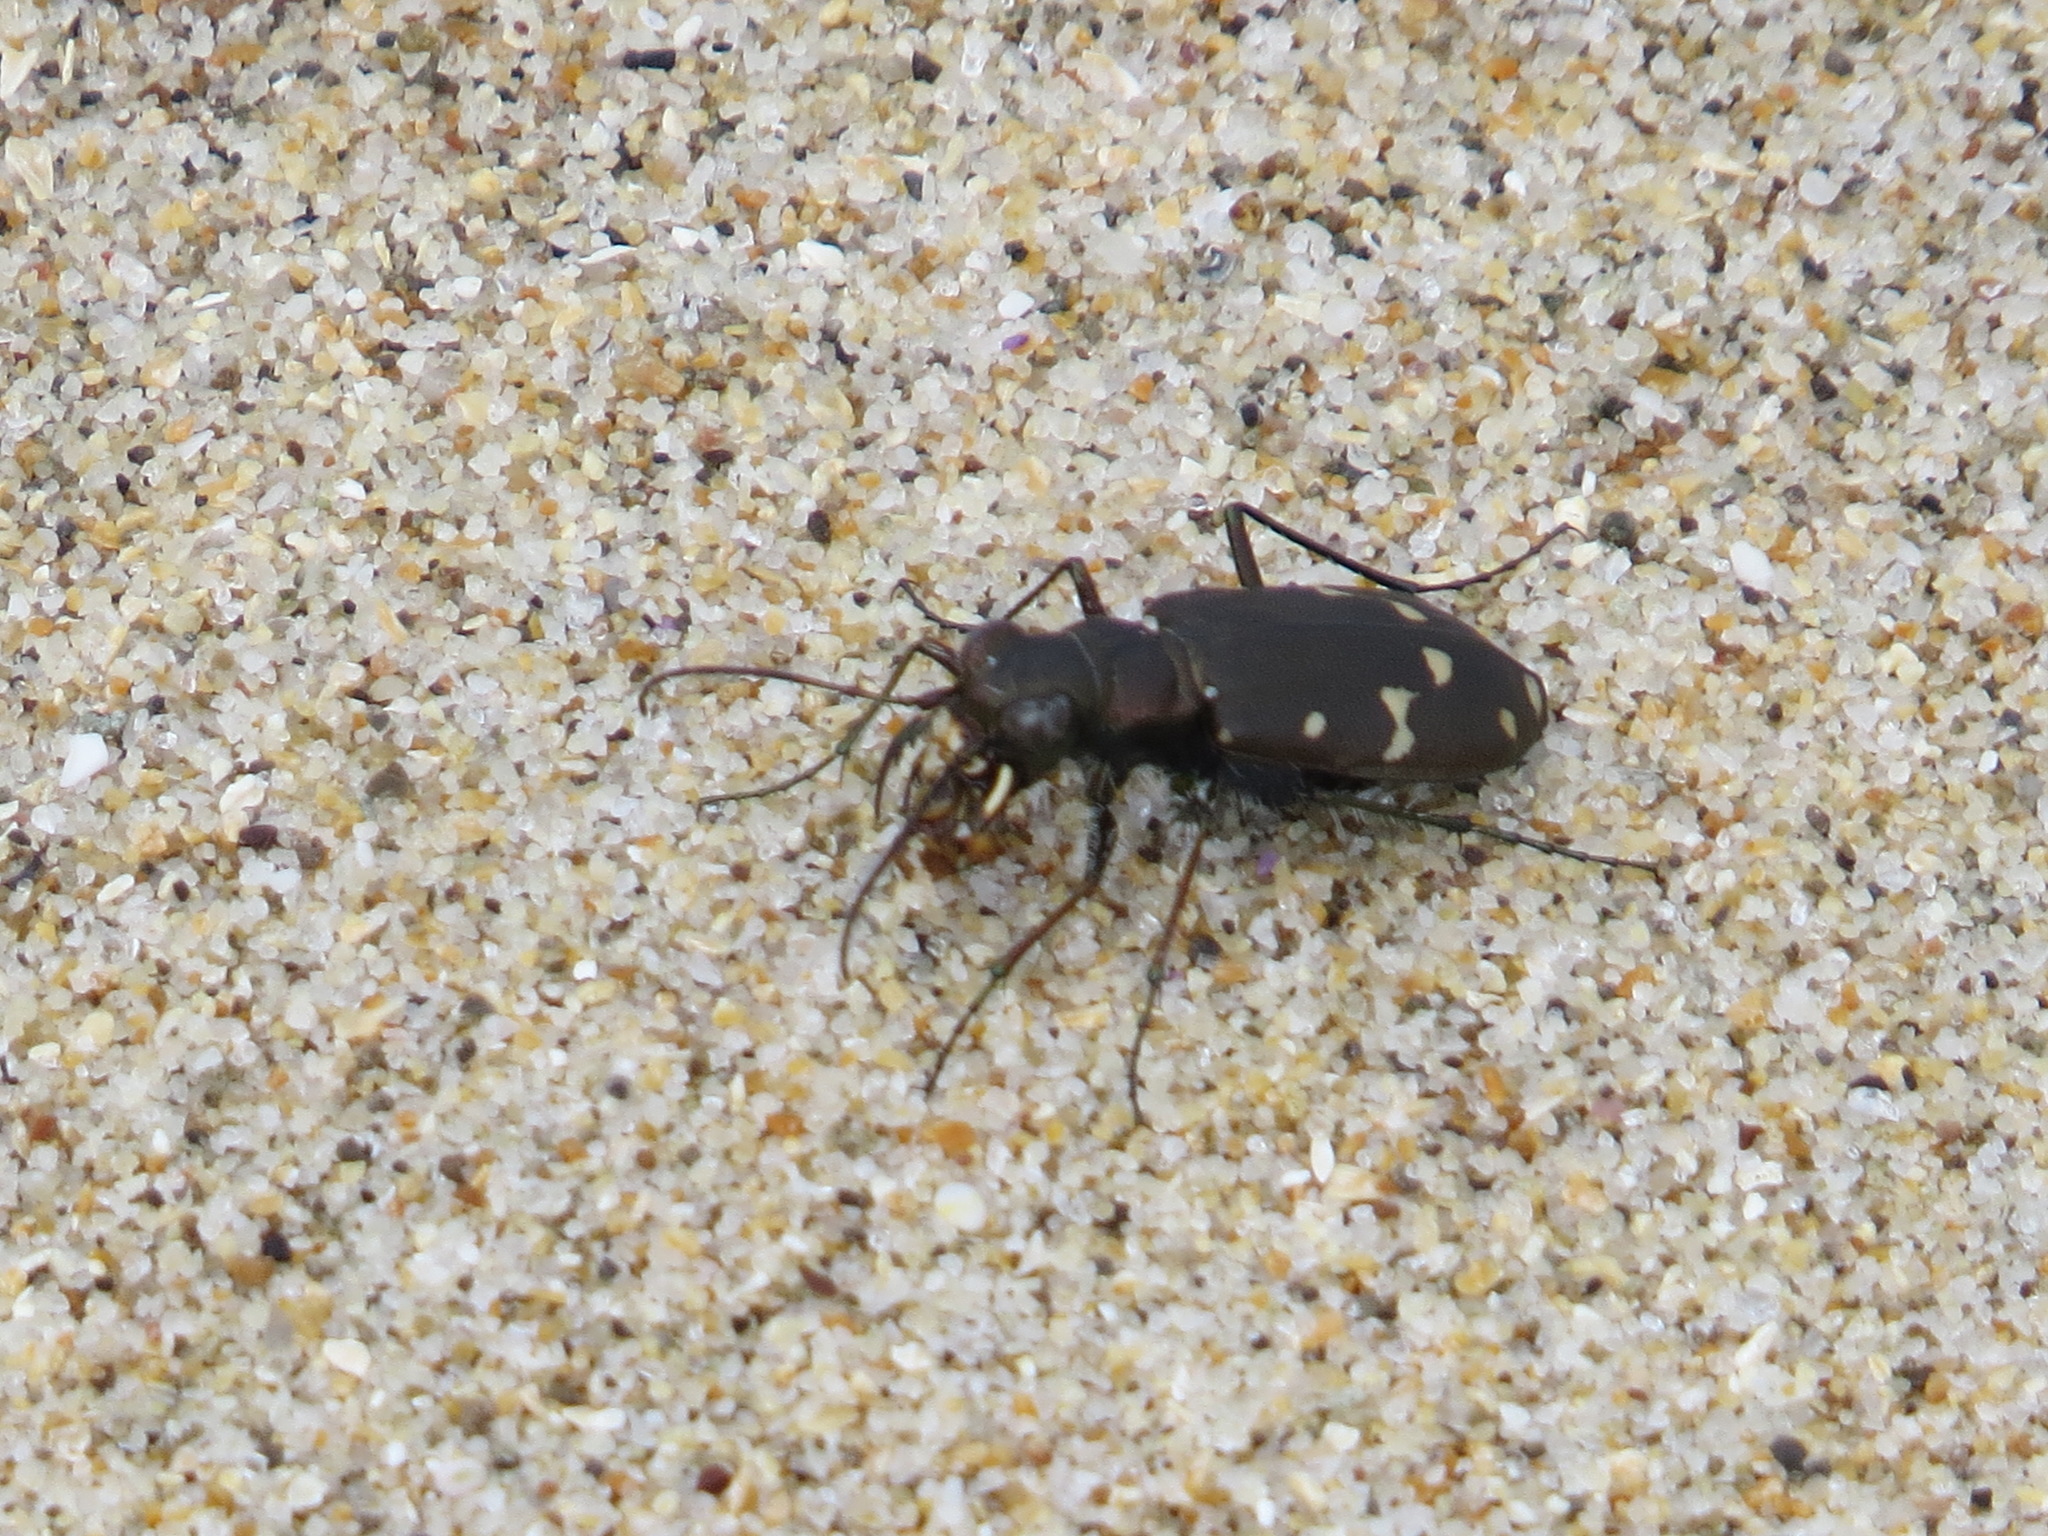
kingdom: Animalia
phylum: Arthropoda
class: Insecta
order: Coleoptera
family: Carabidae
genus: Cicindela
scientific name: Cicindela oregona
